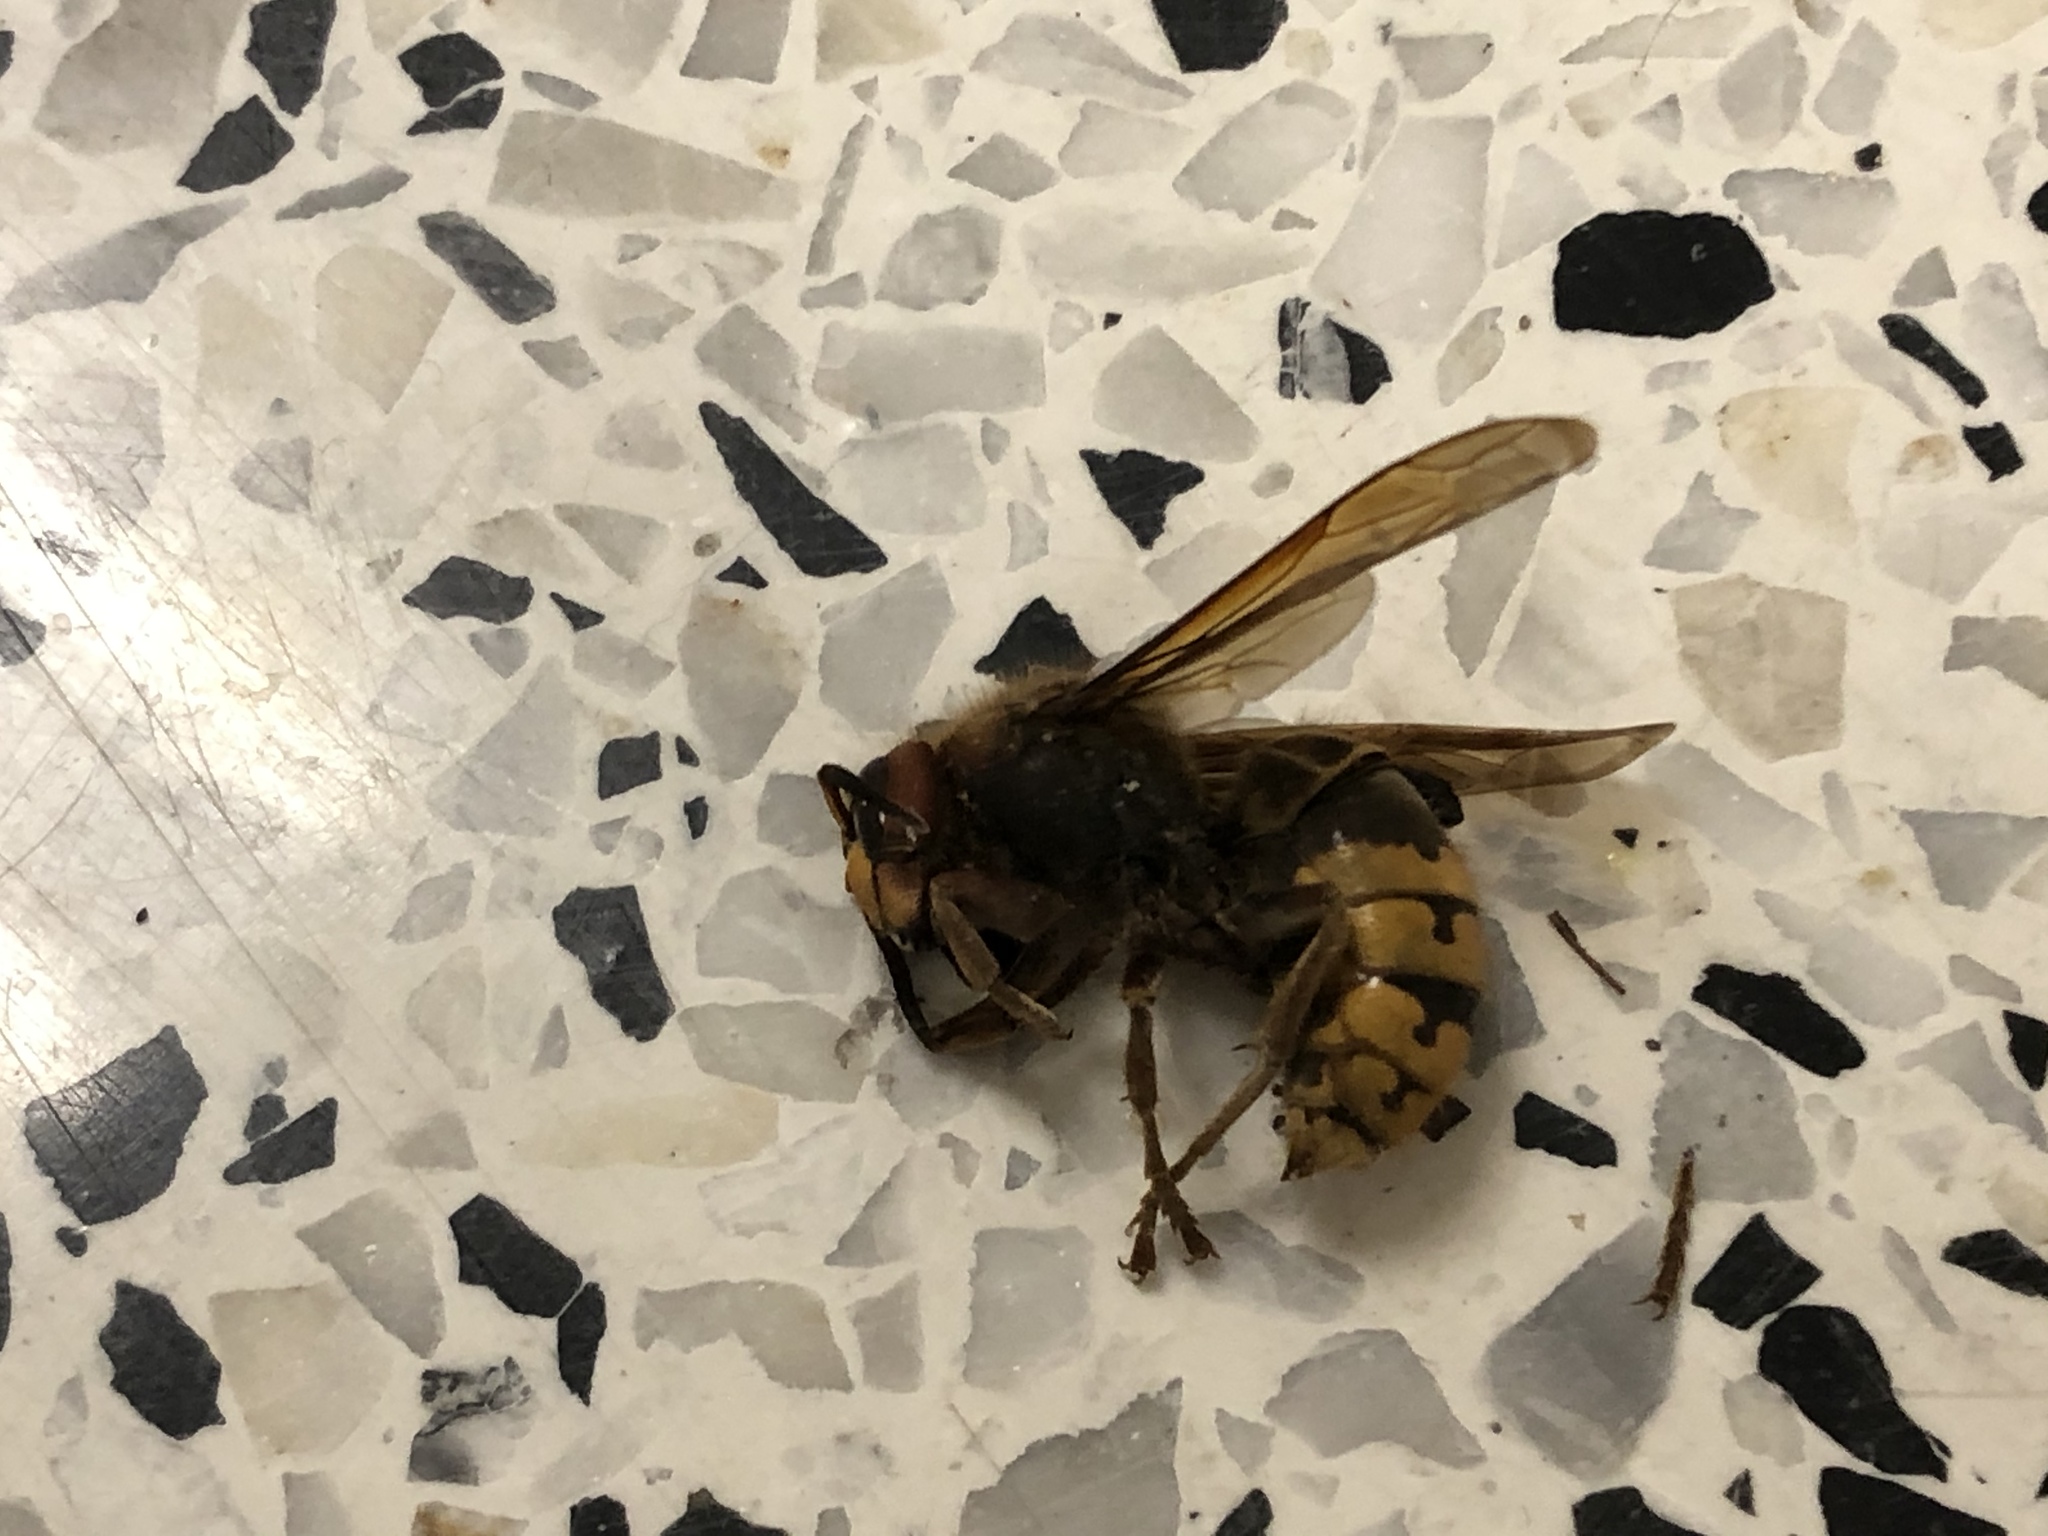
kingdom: Animalia
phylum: Arthropoda
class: Insecta
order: Hymenoptera
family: Vespidae
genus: Vespa
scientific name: Vespa crabro
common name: Hornet
